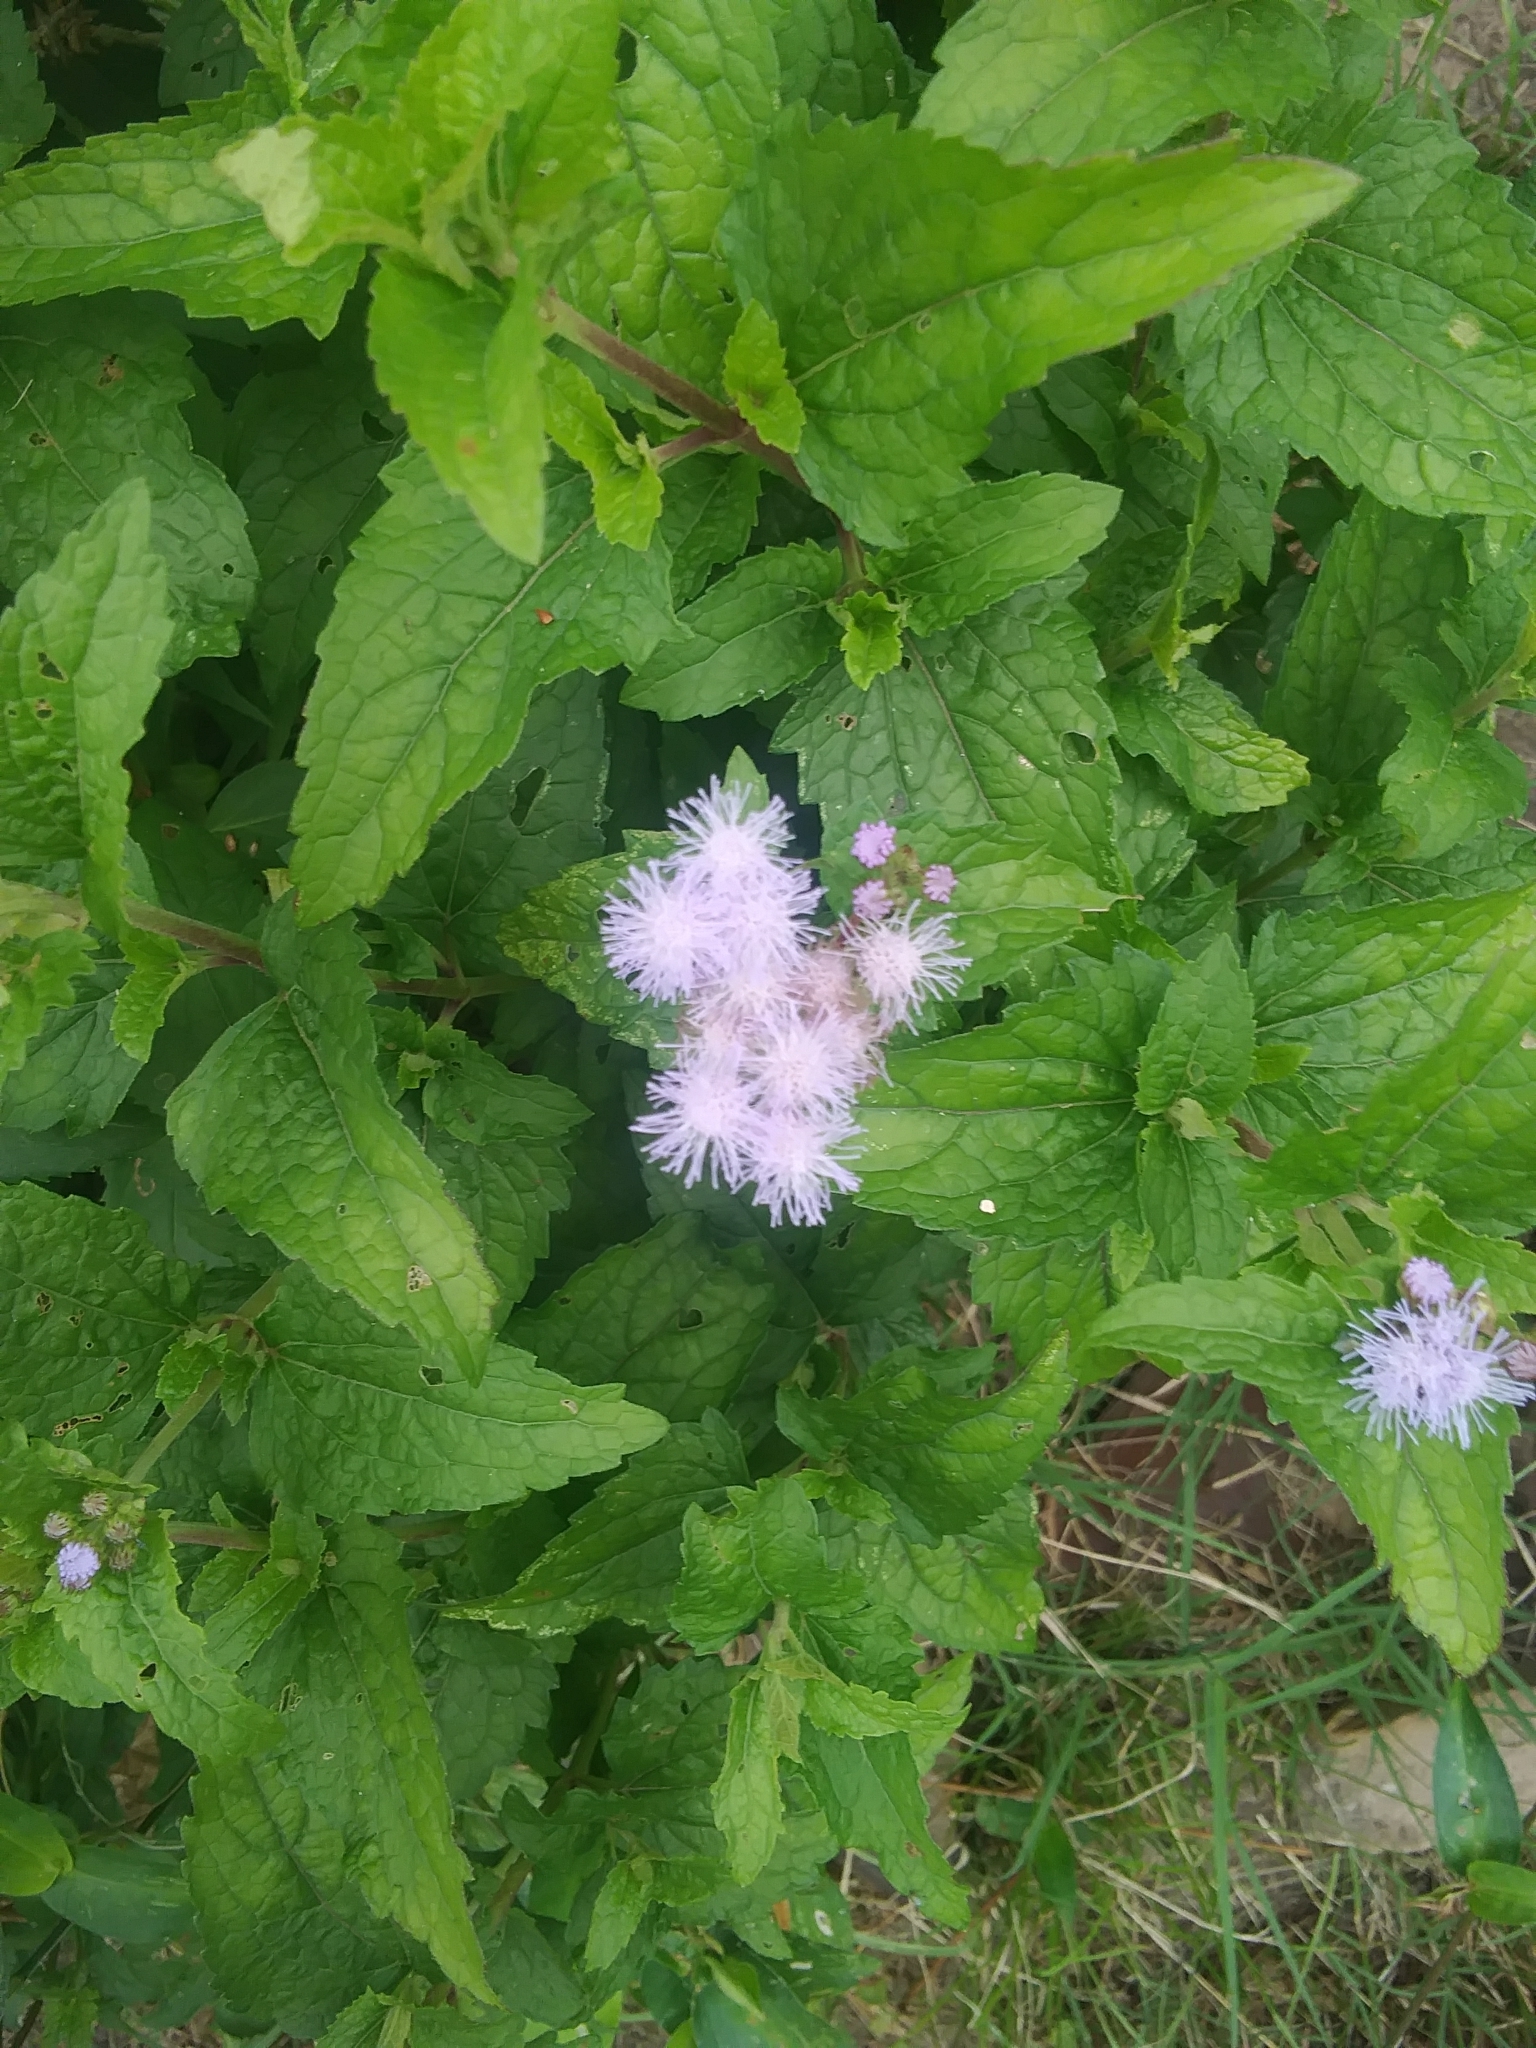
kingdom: Plantae
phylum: Tracheophyta
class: Magnoliopsida
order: Asterales
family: Asteraceae
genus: Conoclinium
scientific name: Conoclinium coelestinum
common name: Blue mistflower
